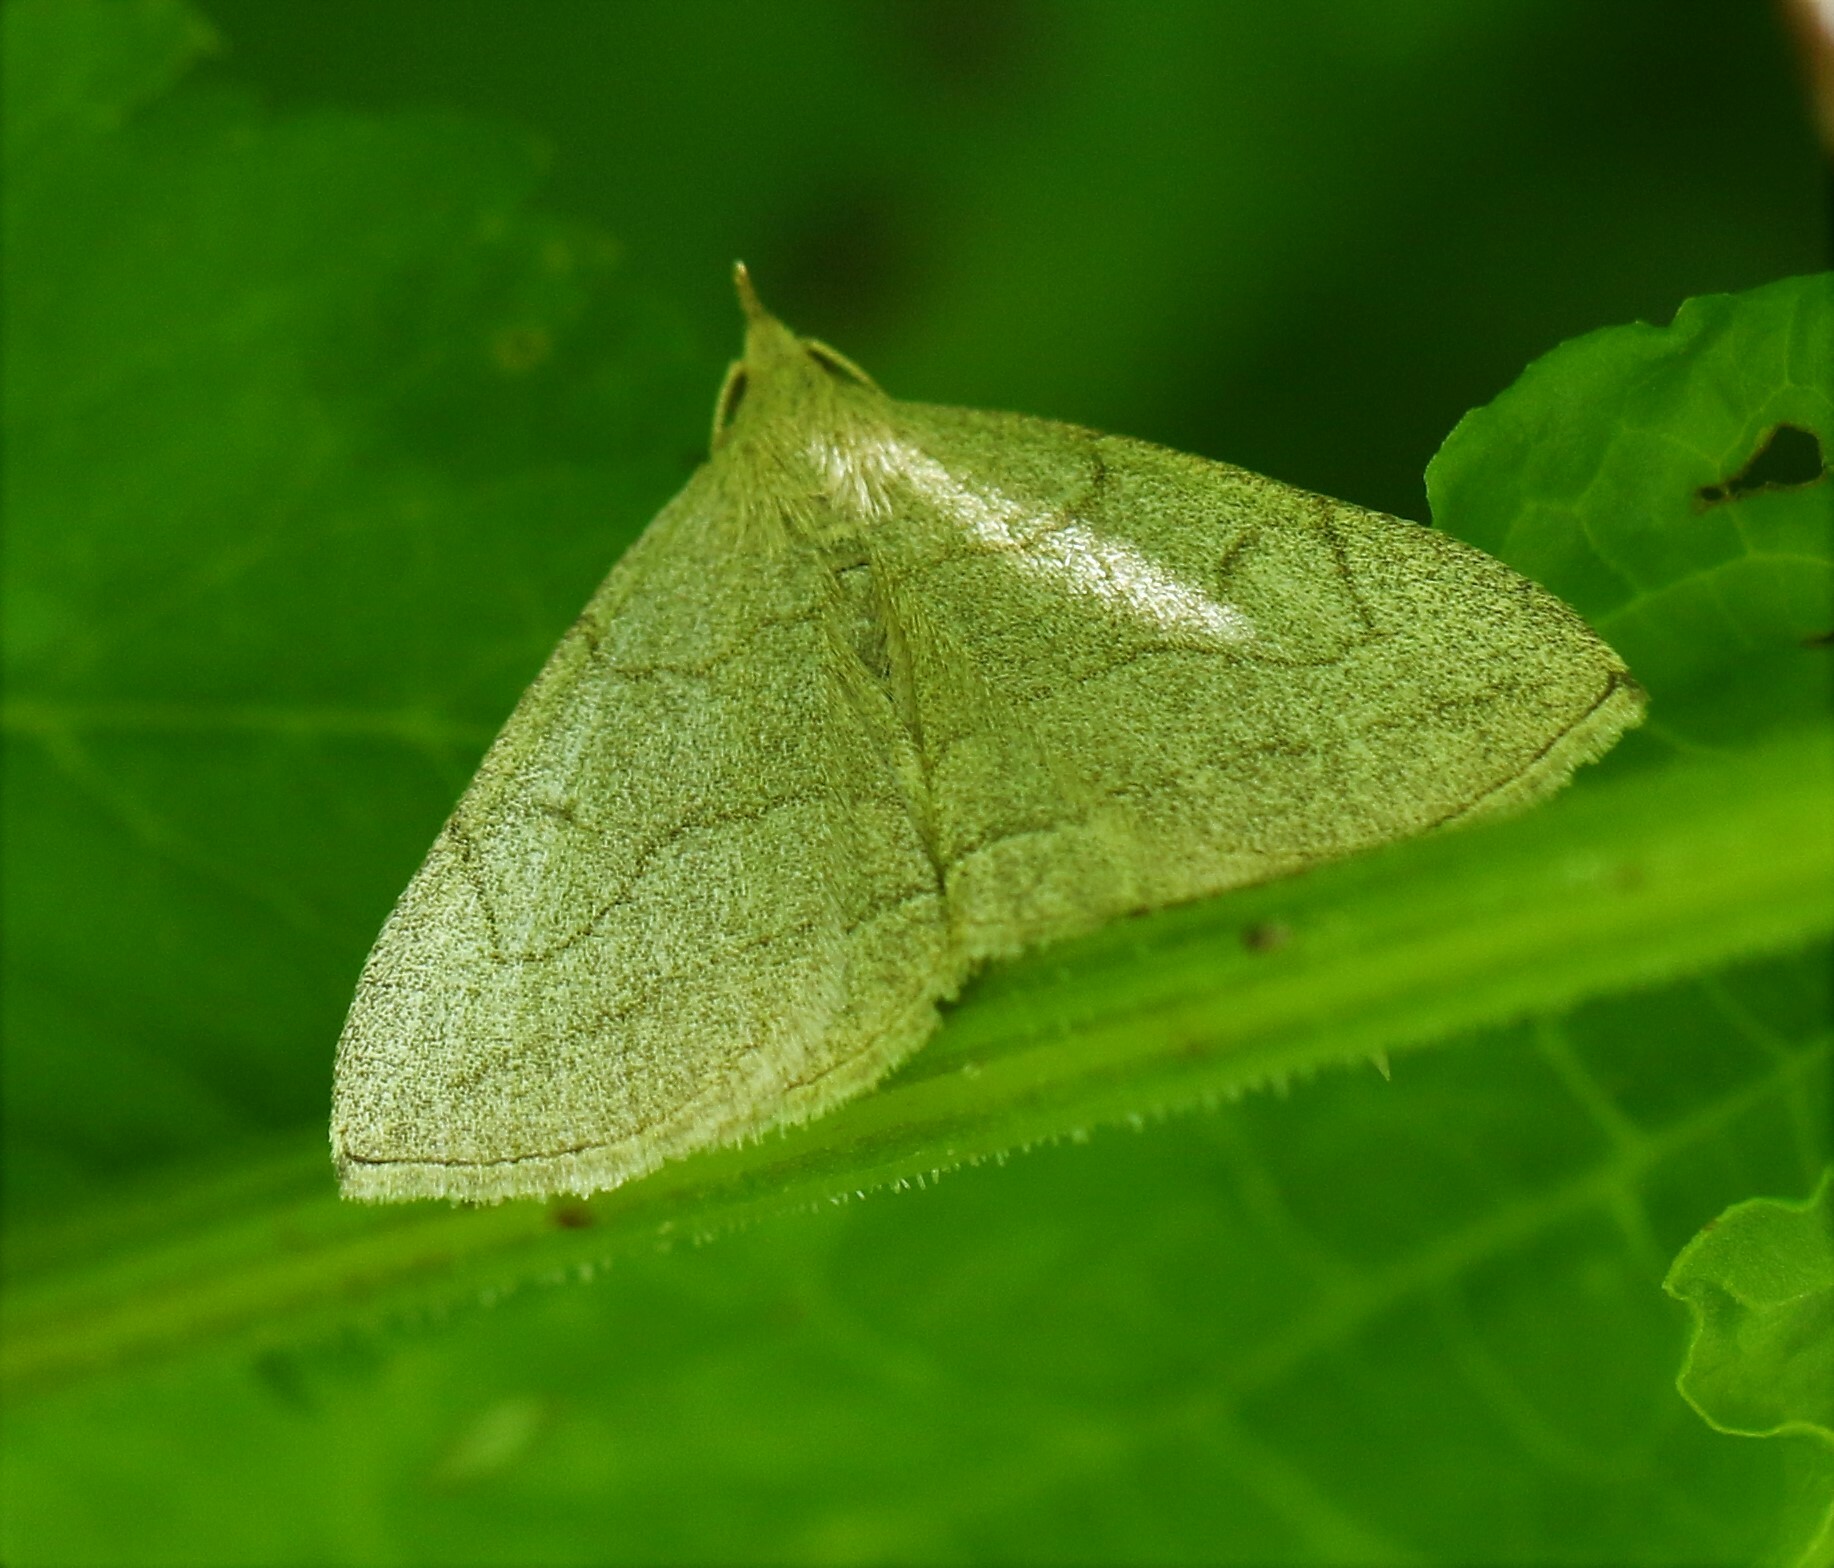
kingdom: Animalia
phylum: Arthropoda
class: Insecta
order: Lepidoptera
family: Erebidae
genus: Zanclognatha
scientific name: Zanclognatha pedipilalis
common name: Grayish fan-foot
